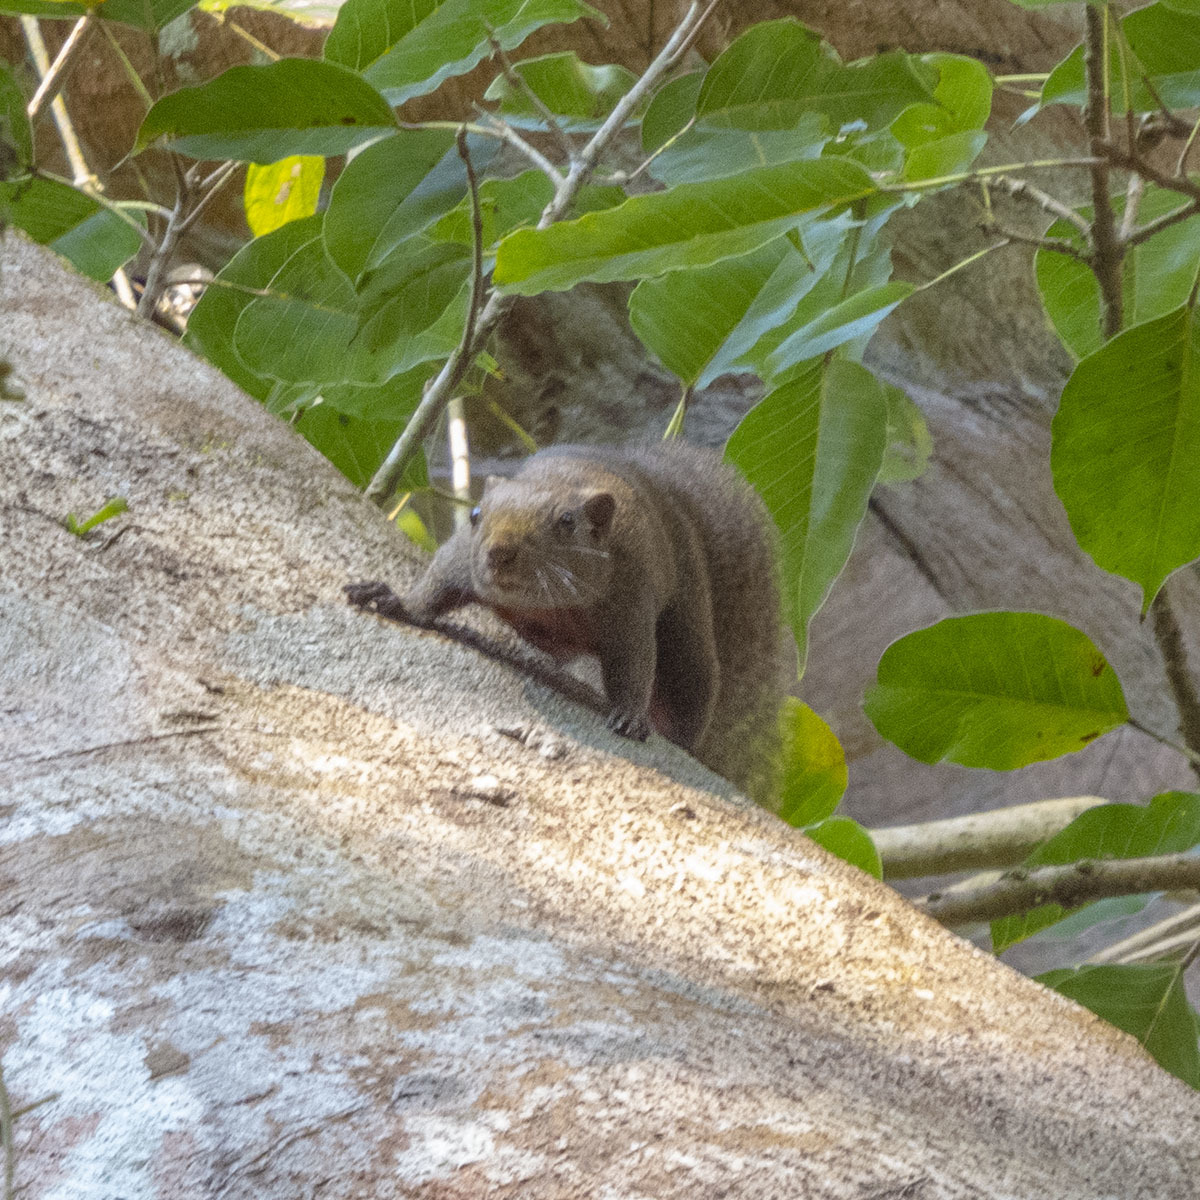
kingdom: Animalia
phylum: Chordata
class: Mammalia
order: Rodentia
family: Sciuridae
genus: Callosciurus
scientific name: Callosciurus erythraeus
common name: Pallas's squirrel
